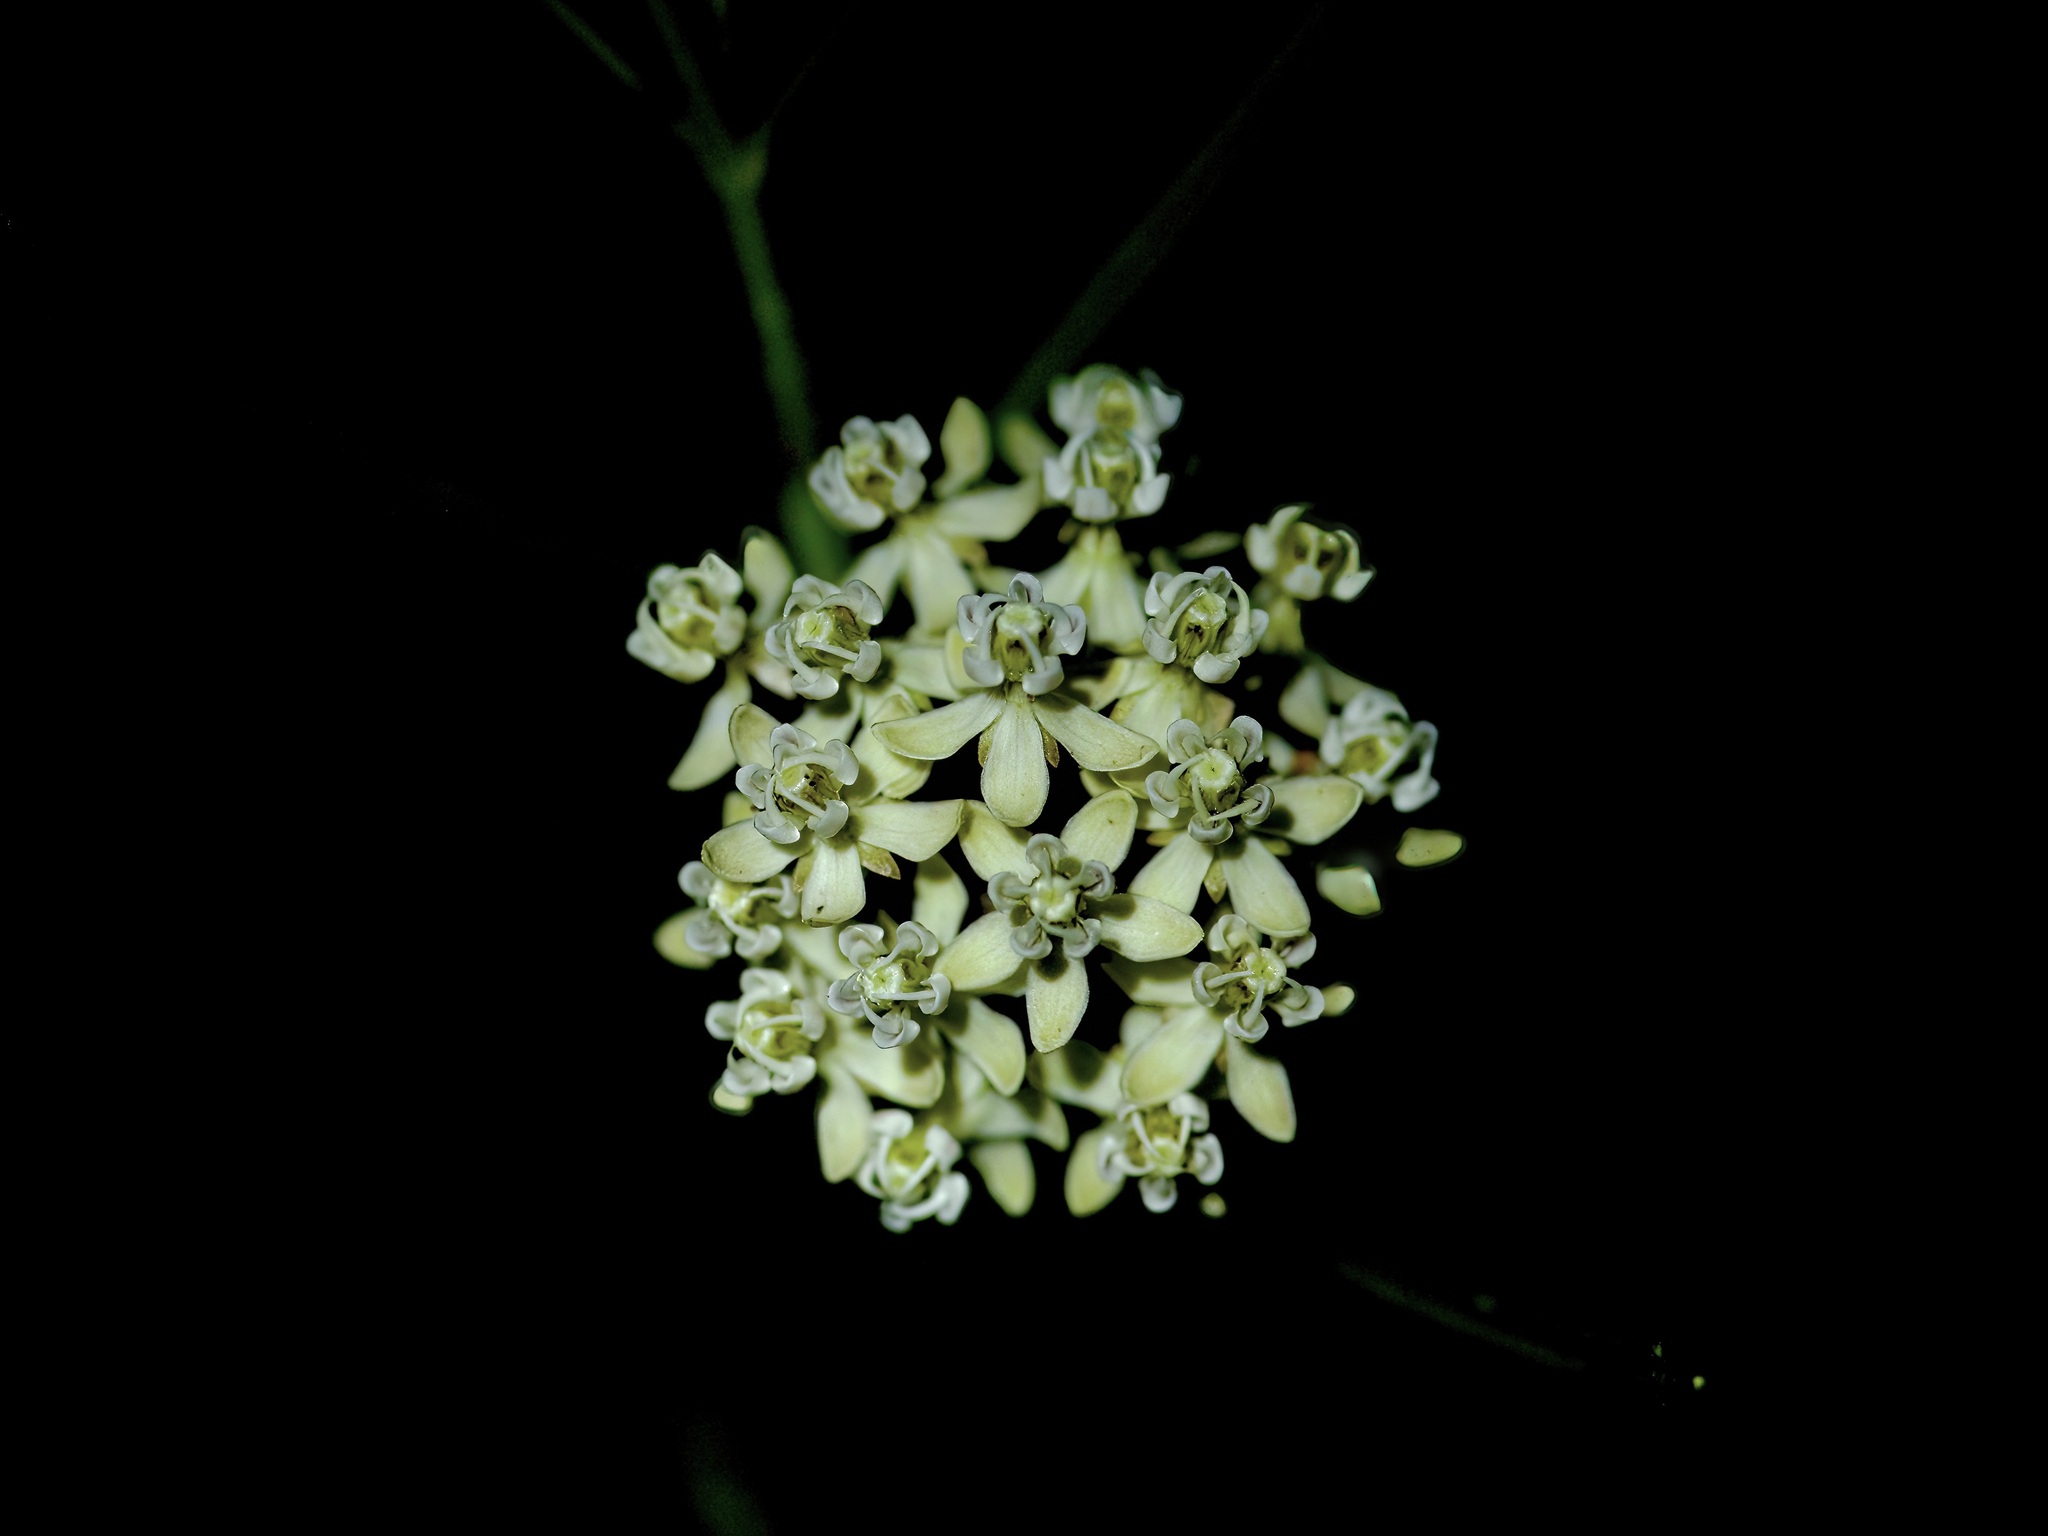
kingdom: Plantae
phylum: Tracheophyta
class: Magnoliopsida
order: Gentianales
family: Apocynaceae
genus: Asclepias
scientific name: Asclepias subverticillata
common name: Horsetail milkweed
